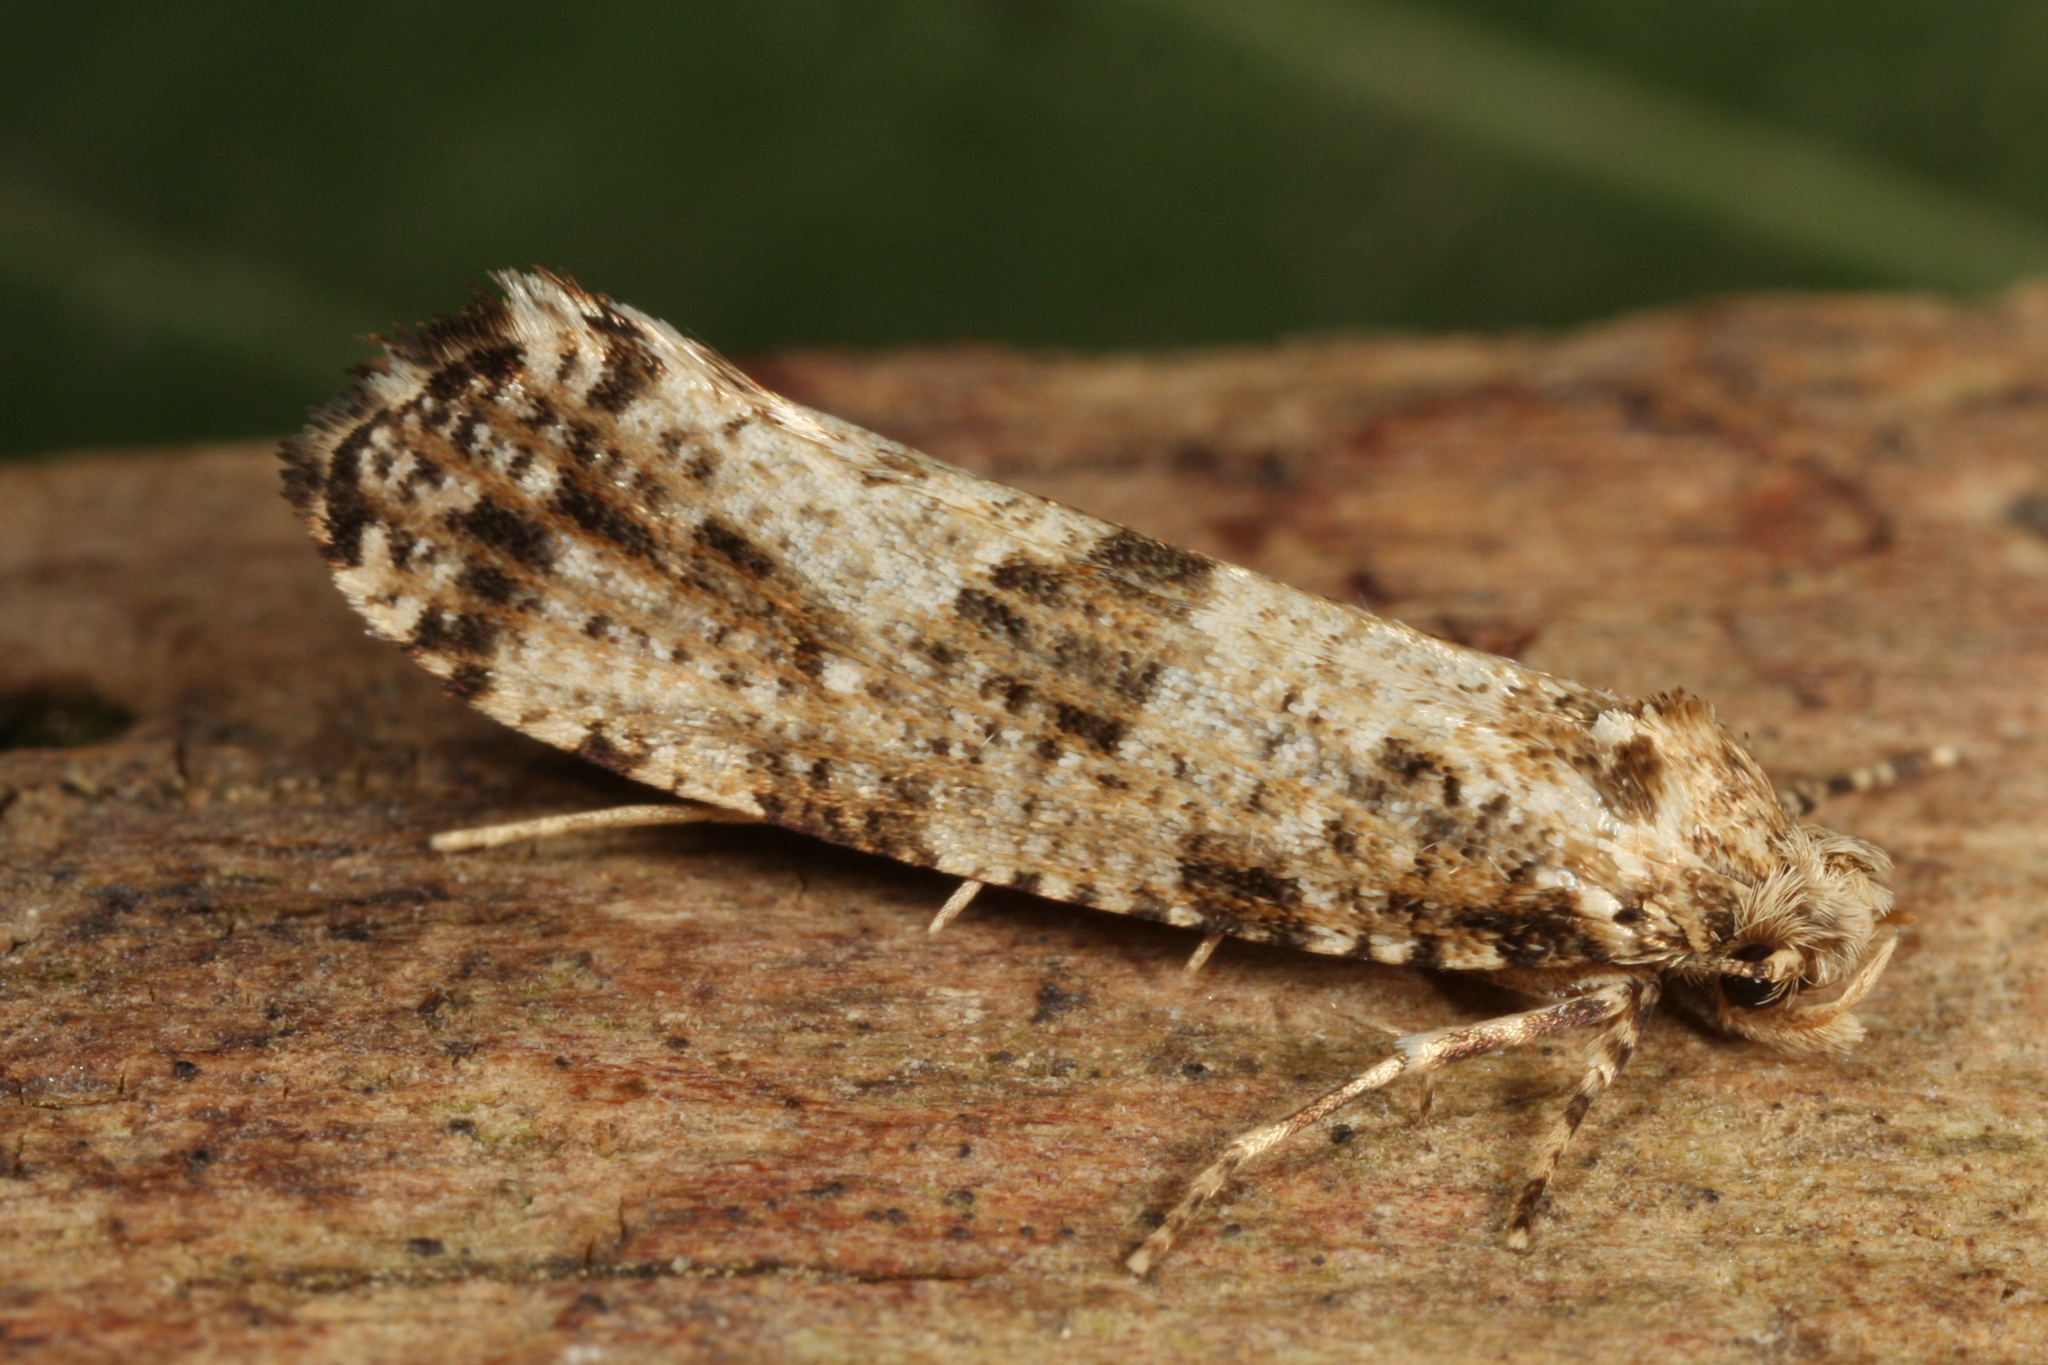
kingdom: Animalia
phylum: Arthropoda
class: Insecta
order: Lepidoptera
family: Tineidae
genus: Morophaga
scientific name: Morophaga choragella
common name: Large clothes
